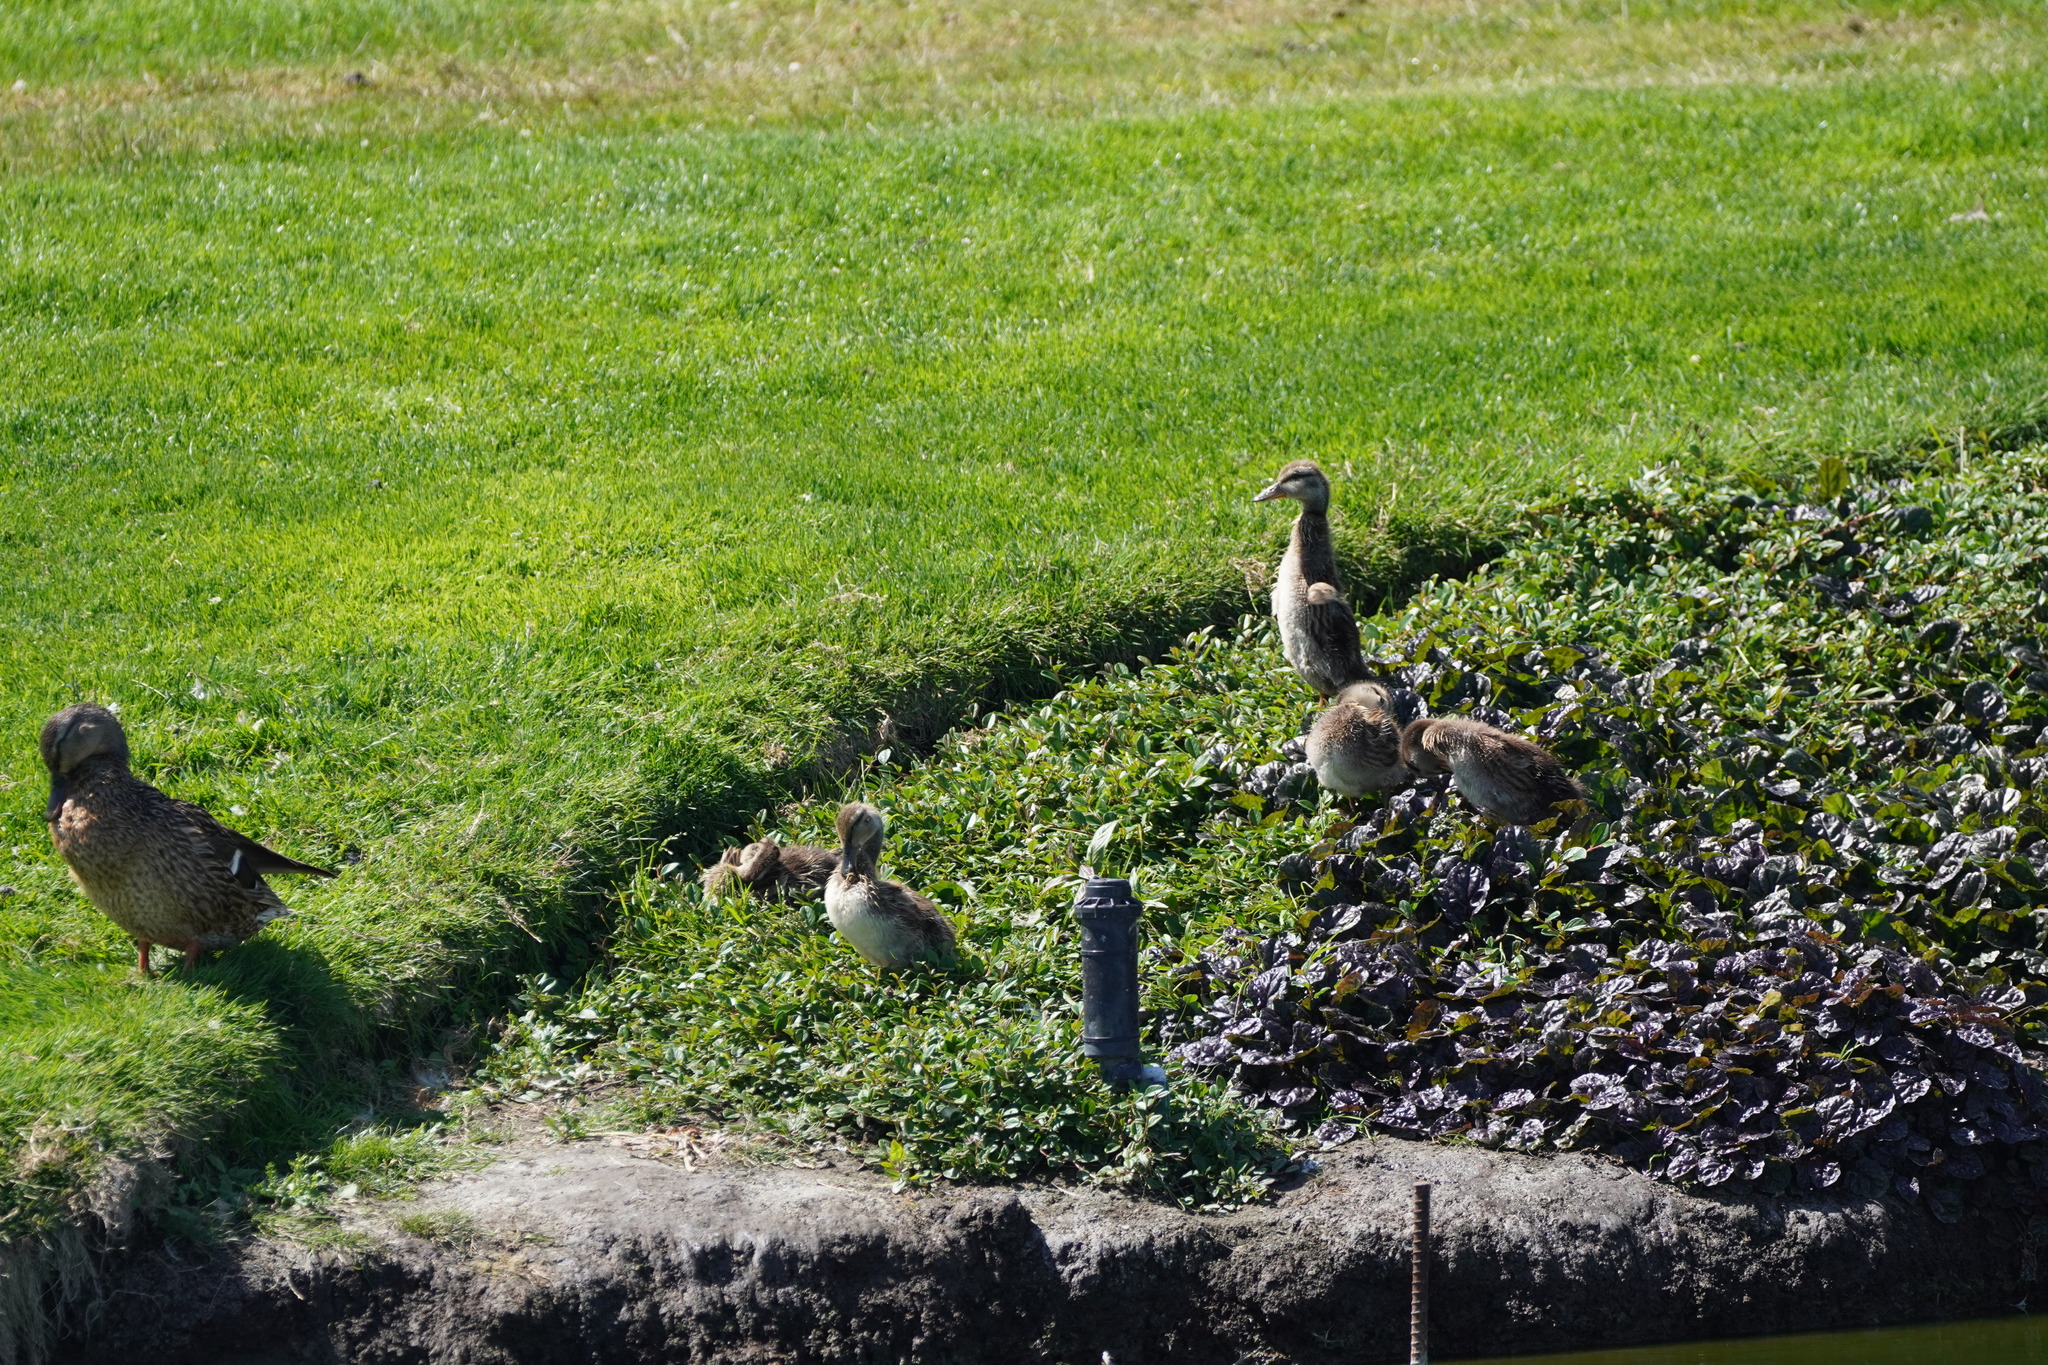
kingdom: Animalia
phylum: Chordata
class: Aves
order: Anseriformes
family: Anatidae
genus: Anas
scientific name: Anas platyrhynchos
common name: Mallard
